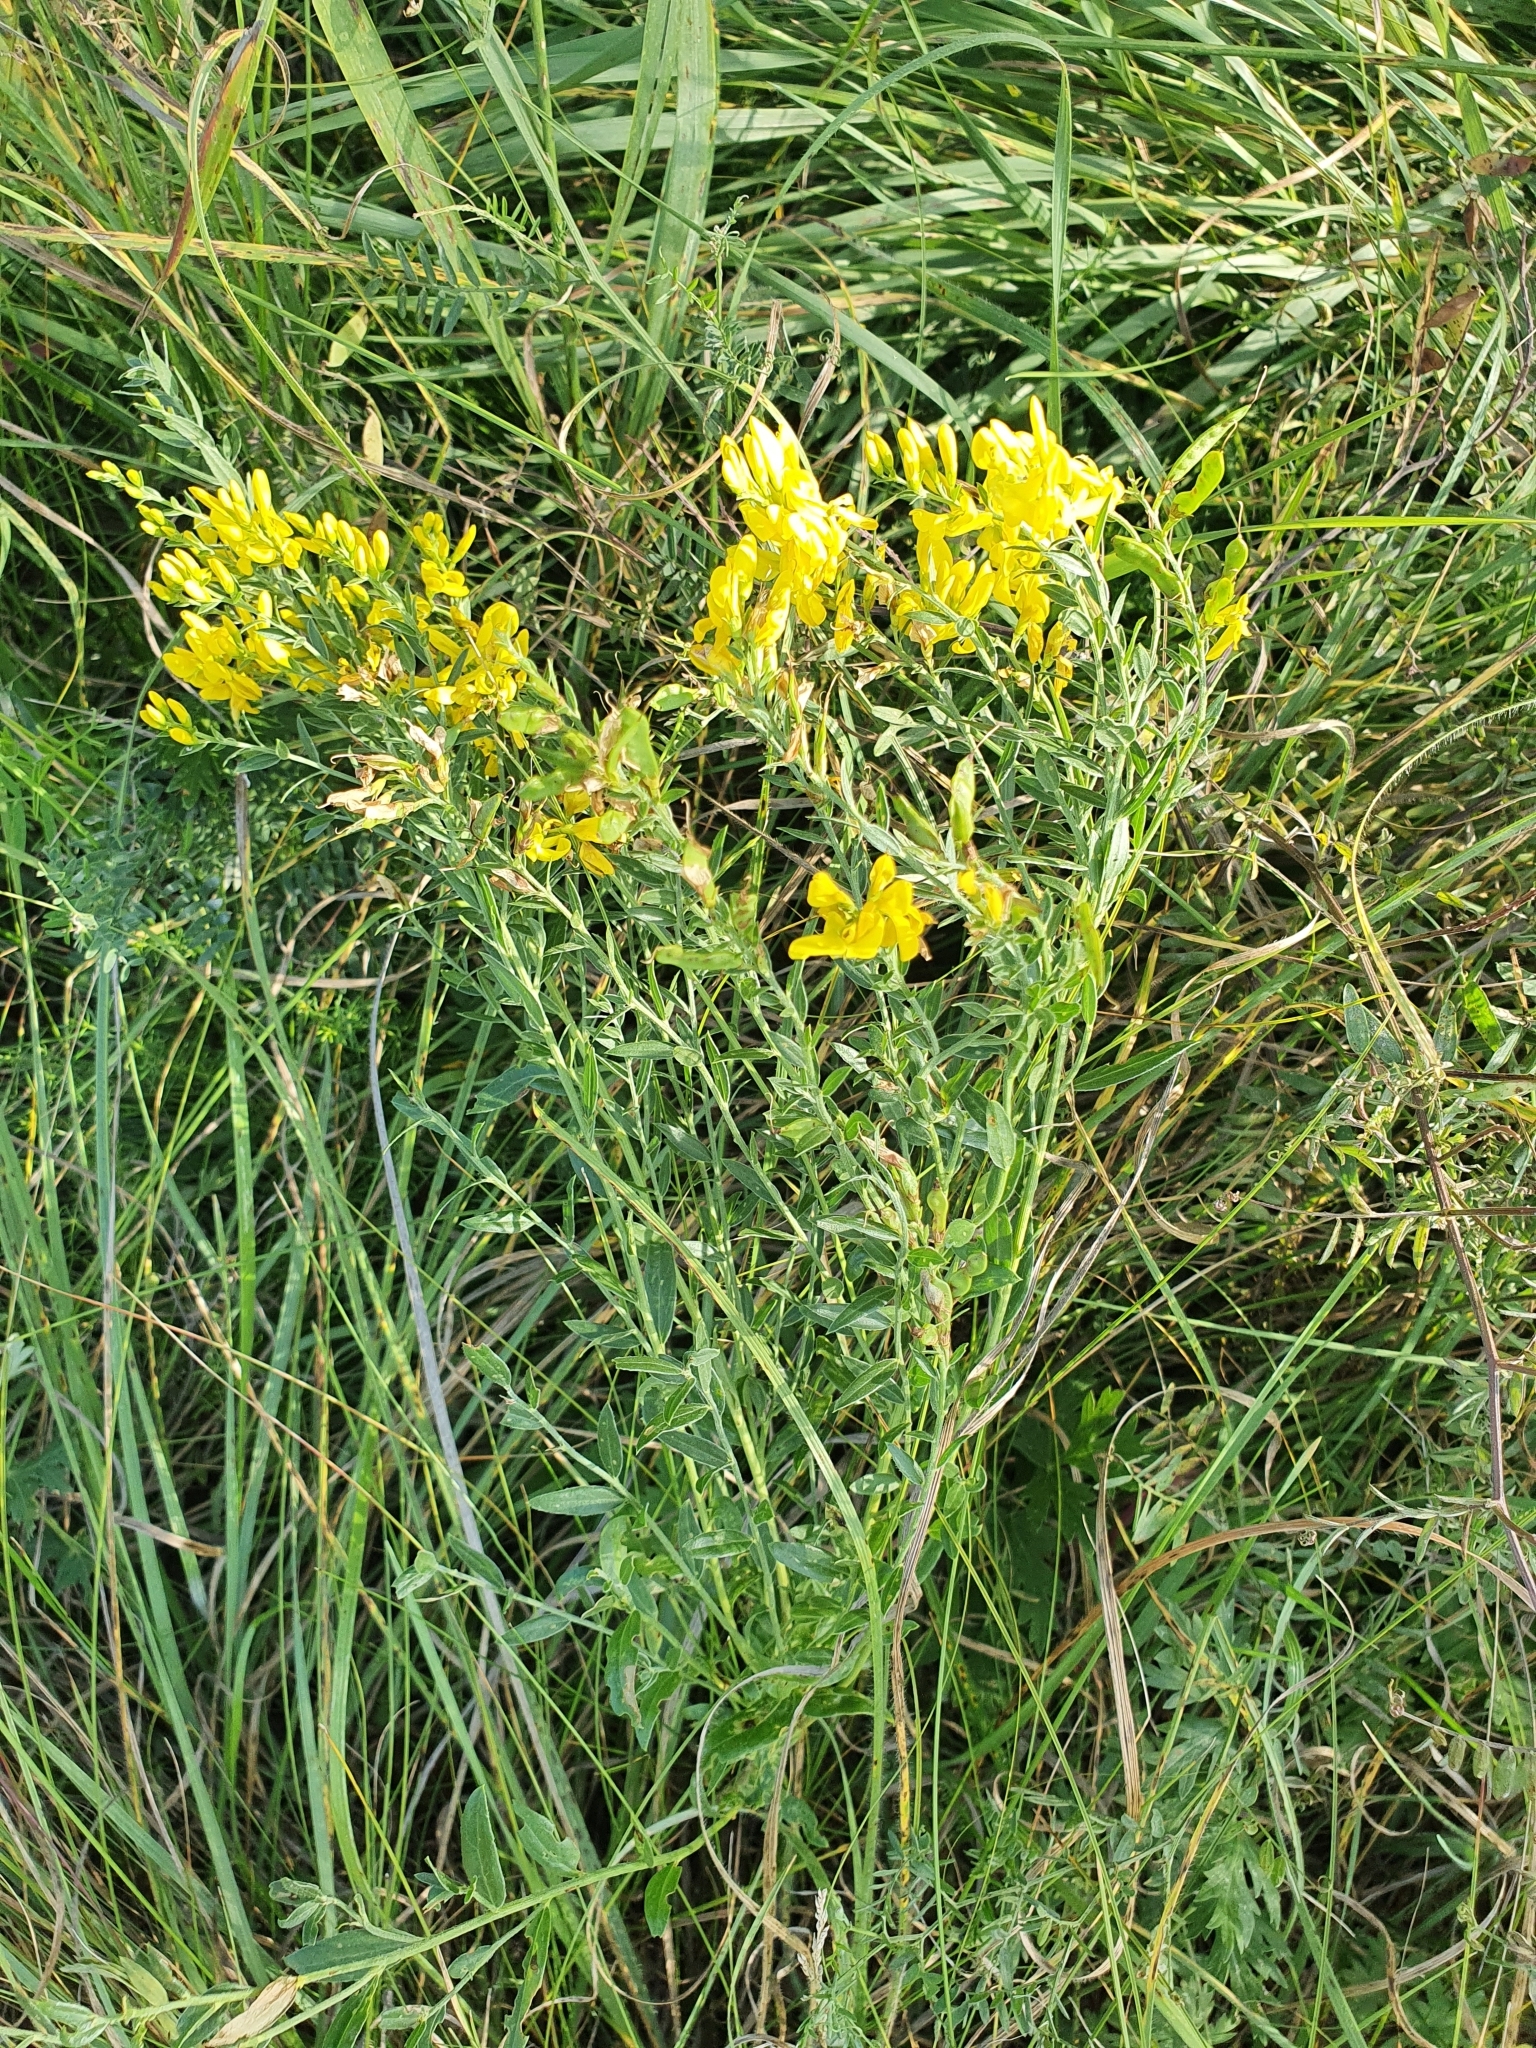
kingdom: Plantae
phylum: Tracheophyta
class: Magnoliopsida
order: Fabales
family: Fabaceae
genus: Genista
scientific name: Genista tinctoria
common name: Dyer's greenweed
